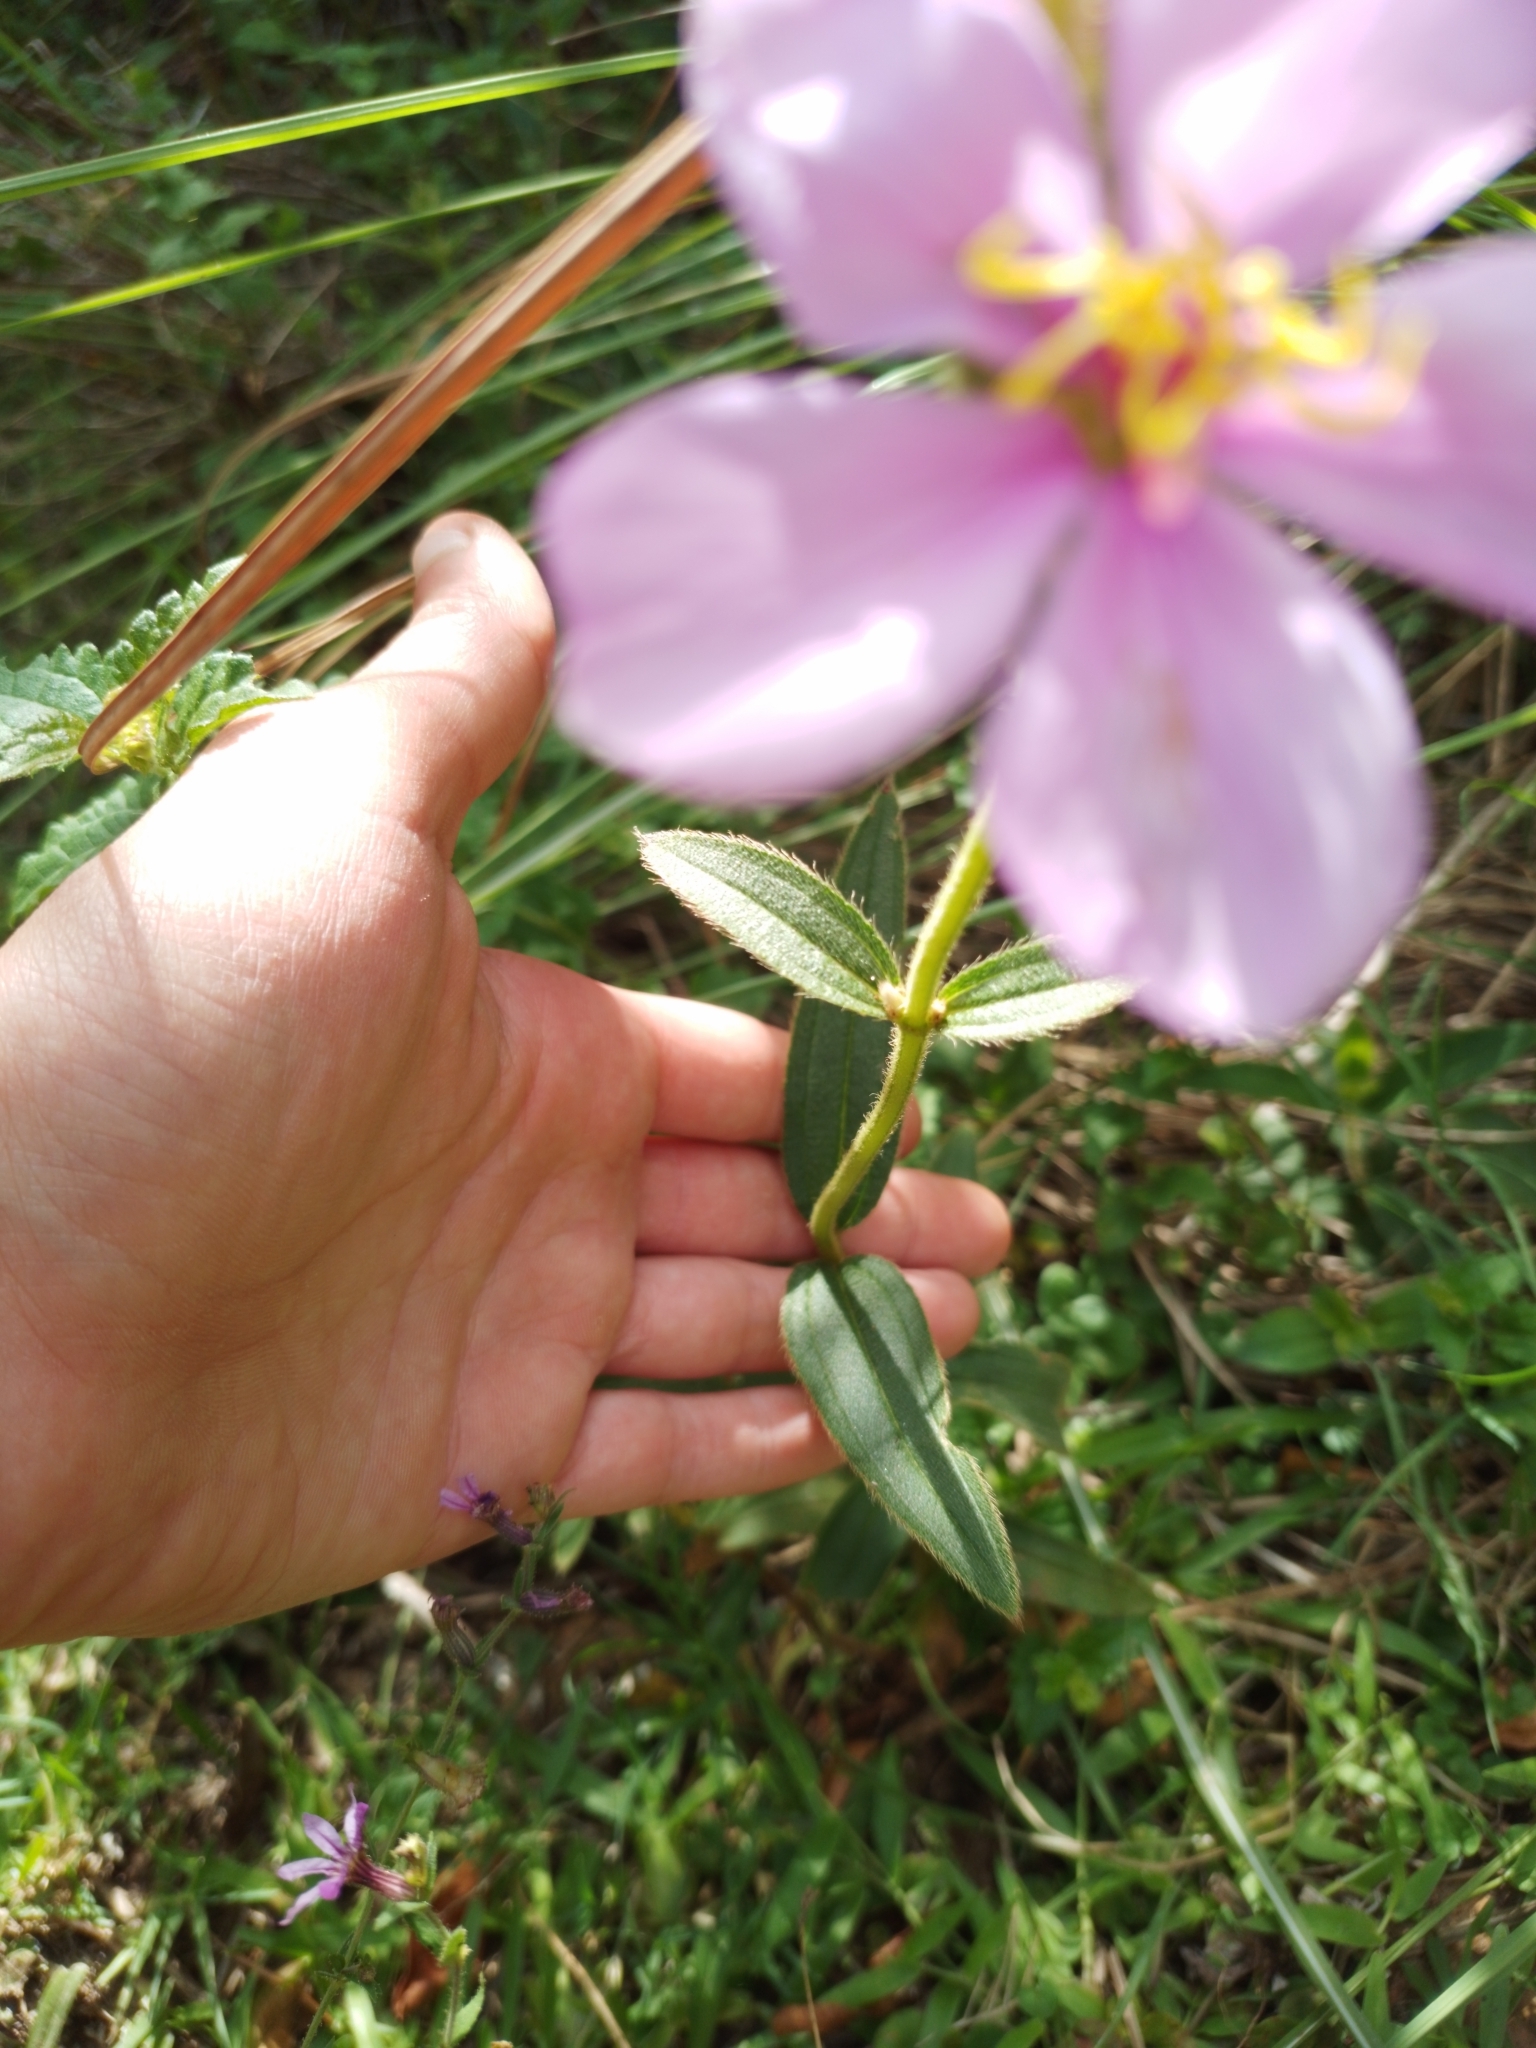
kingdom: Plantae
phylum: Tracheophyta
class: Magnoliopsida
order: Myrtales
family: Melastomataceae
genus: Chaetogastra
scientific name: Chaetogastra gracilis
